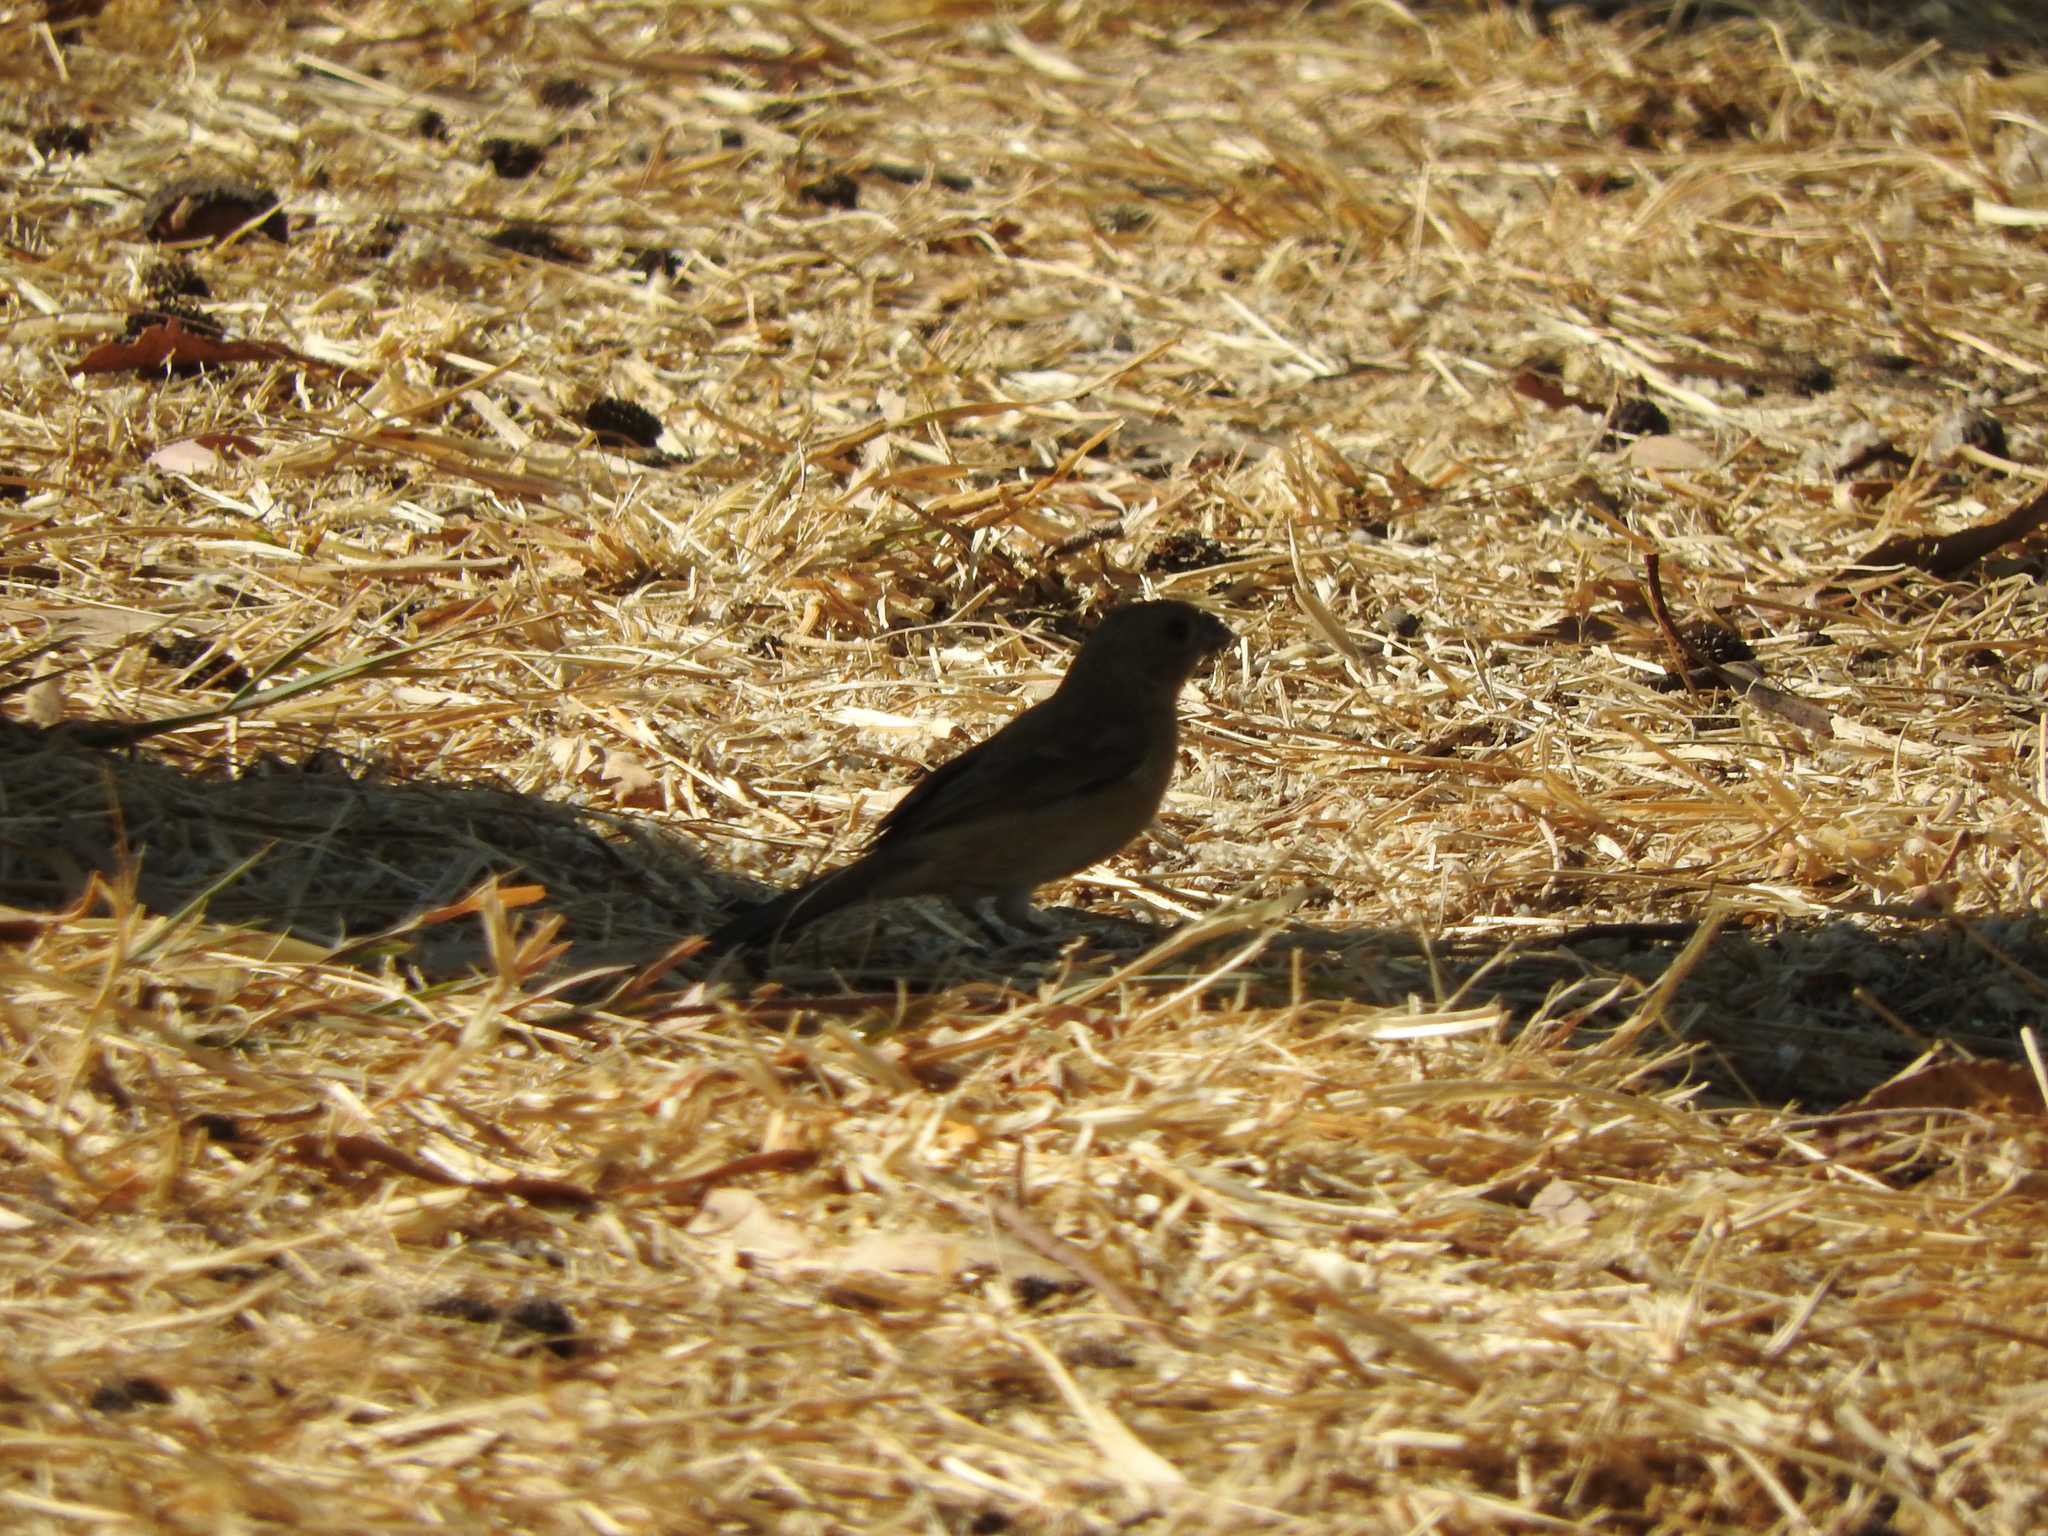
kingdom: Animalia
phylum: Chordata
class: Aves
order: Passeriformes
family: Thraupidae
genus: Sporophila
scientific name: Sporophila torqueola
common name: White-collared seedeater
